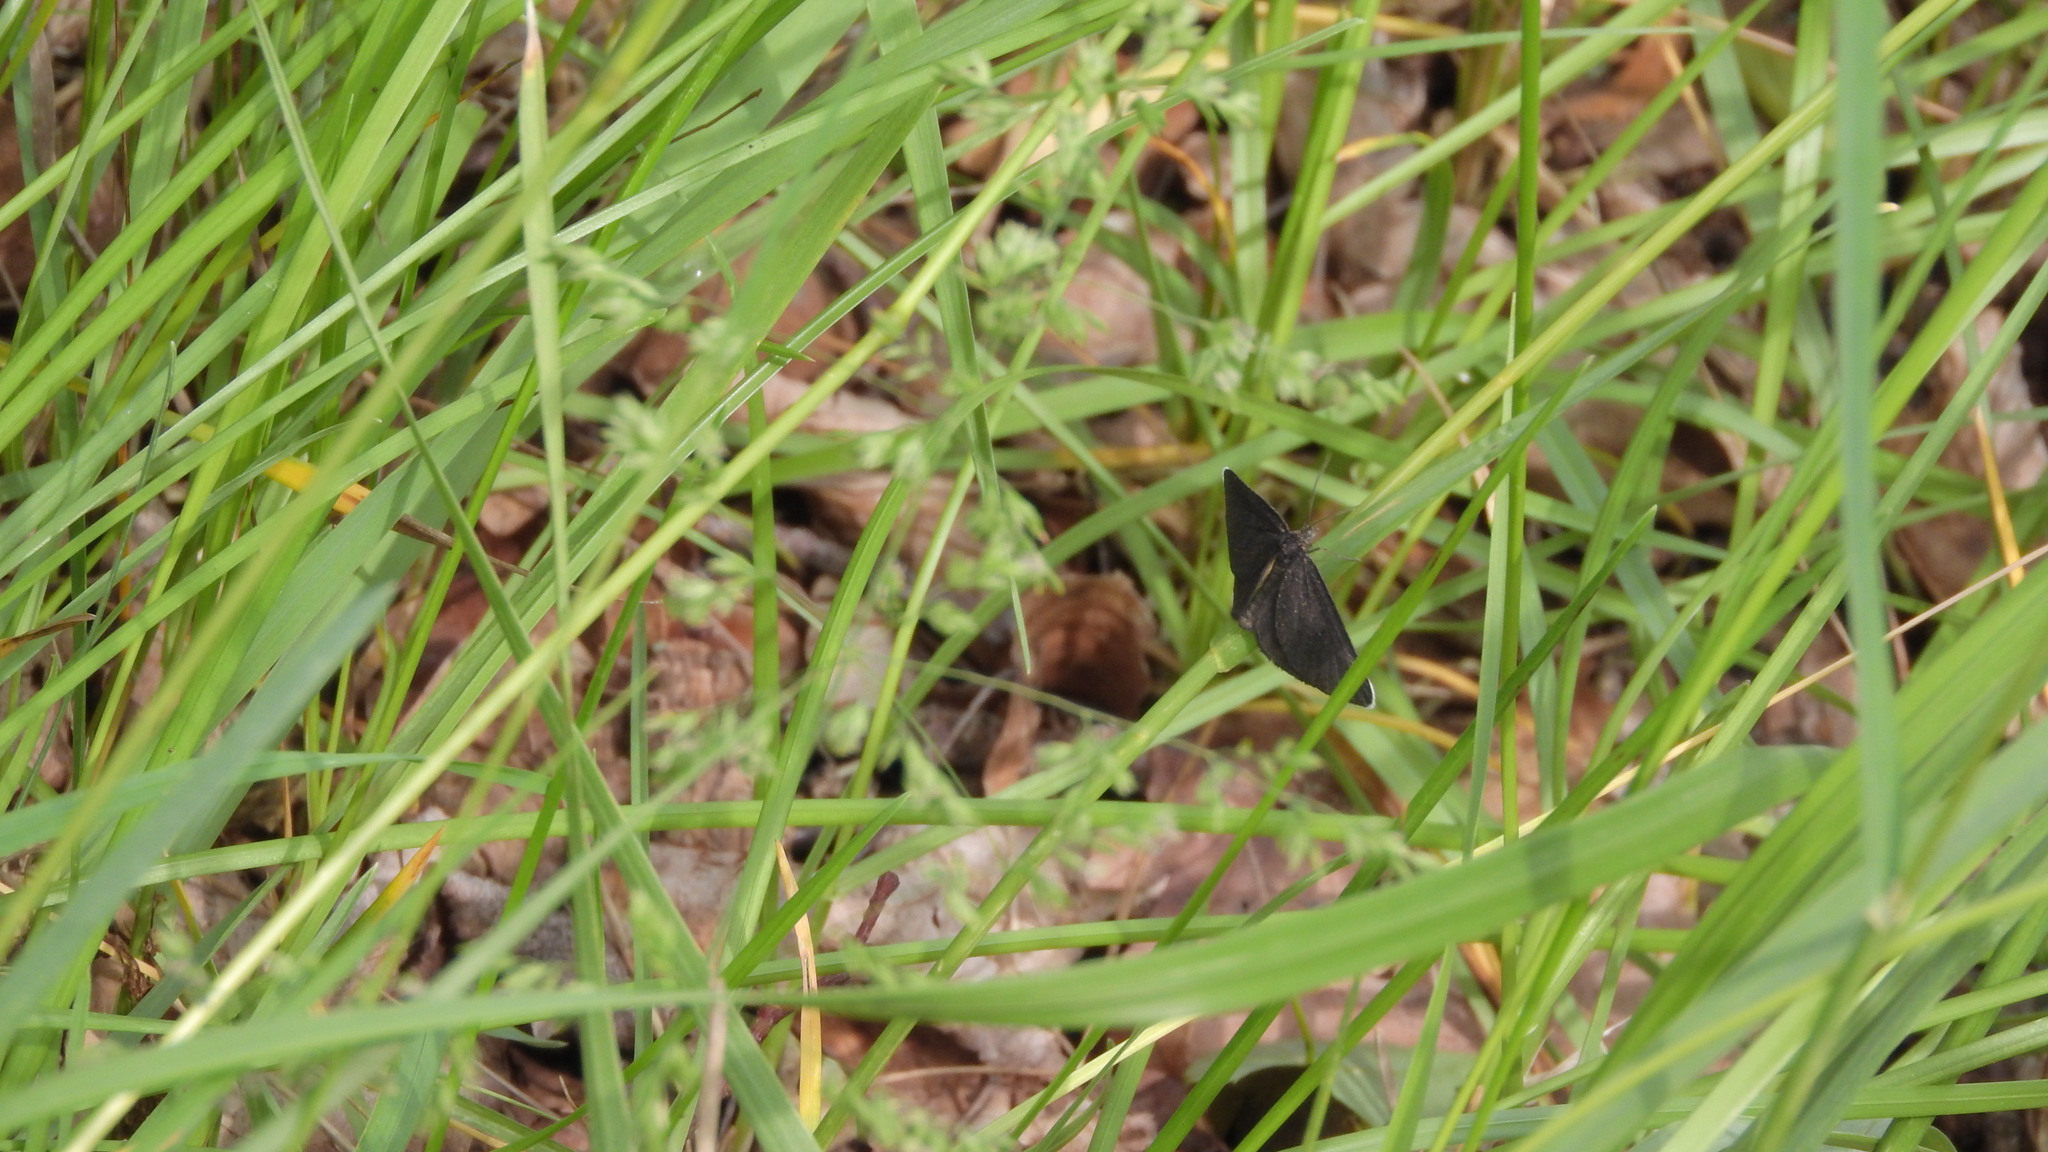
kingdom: Animalia
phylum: Arthropoda
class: Insecta
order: Lepidoptera
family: Geometridae
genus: Odezia
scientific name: Odezia atrata
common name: Chimney sweeper
